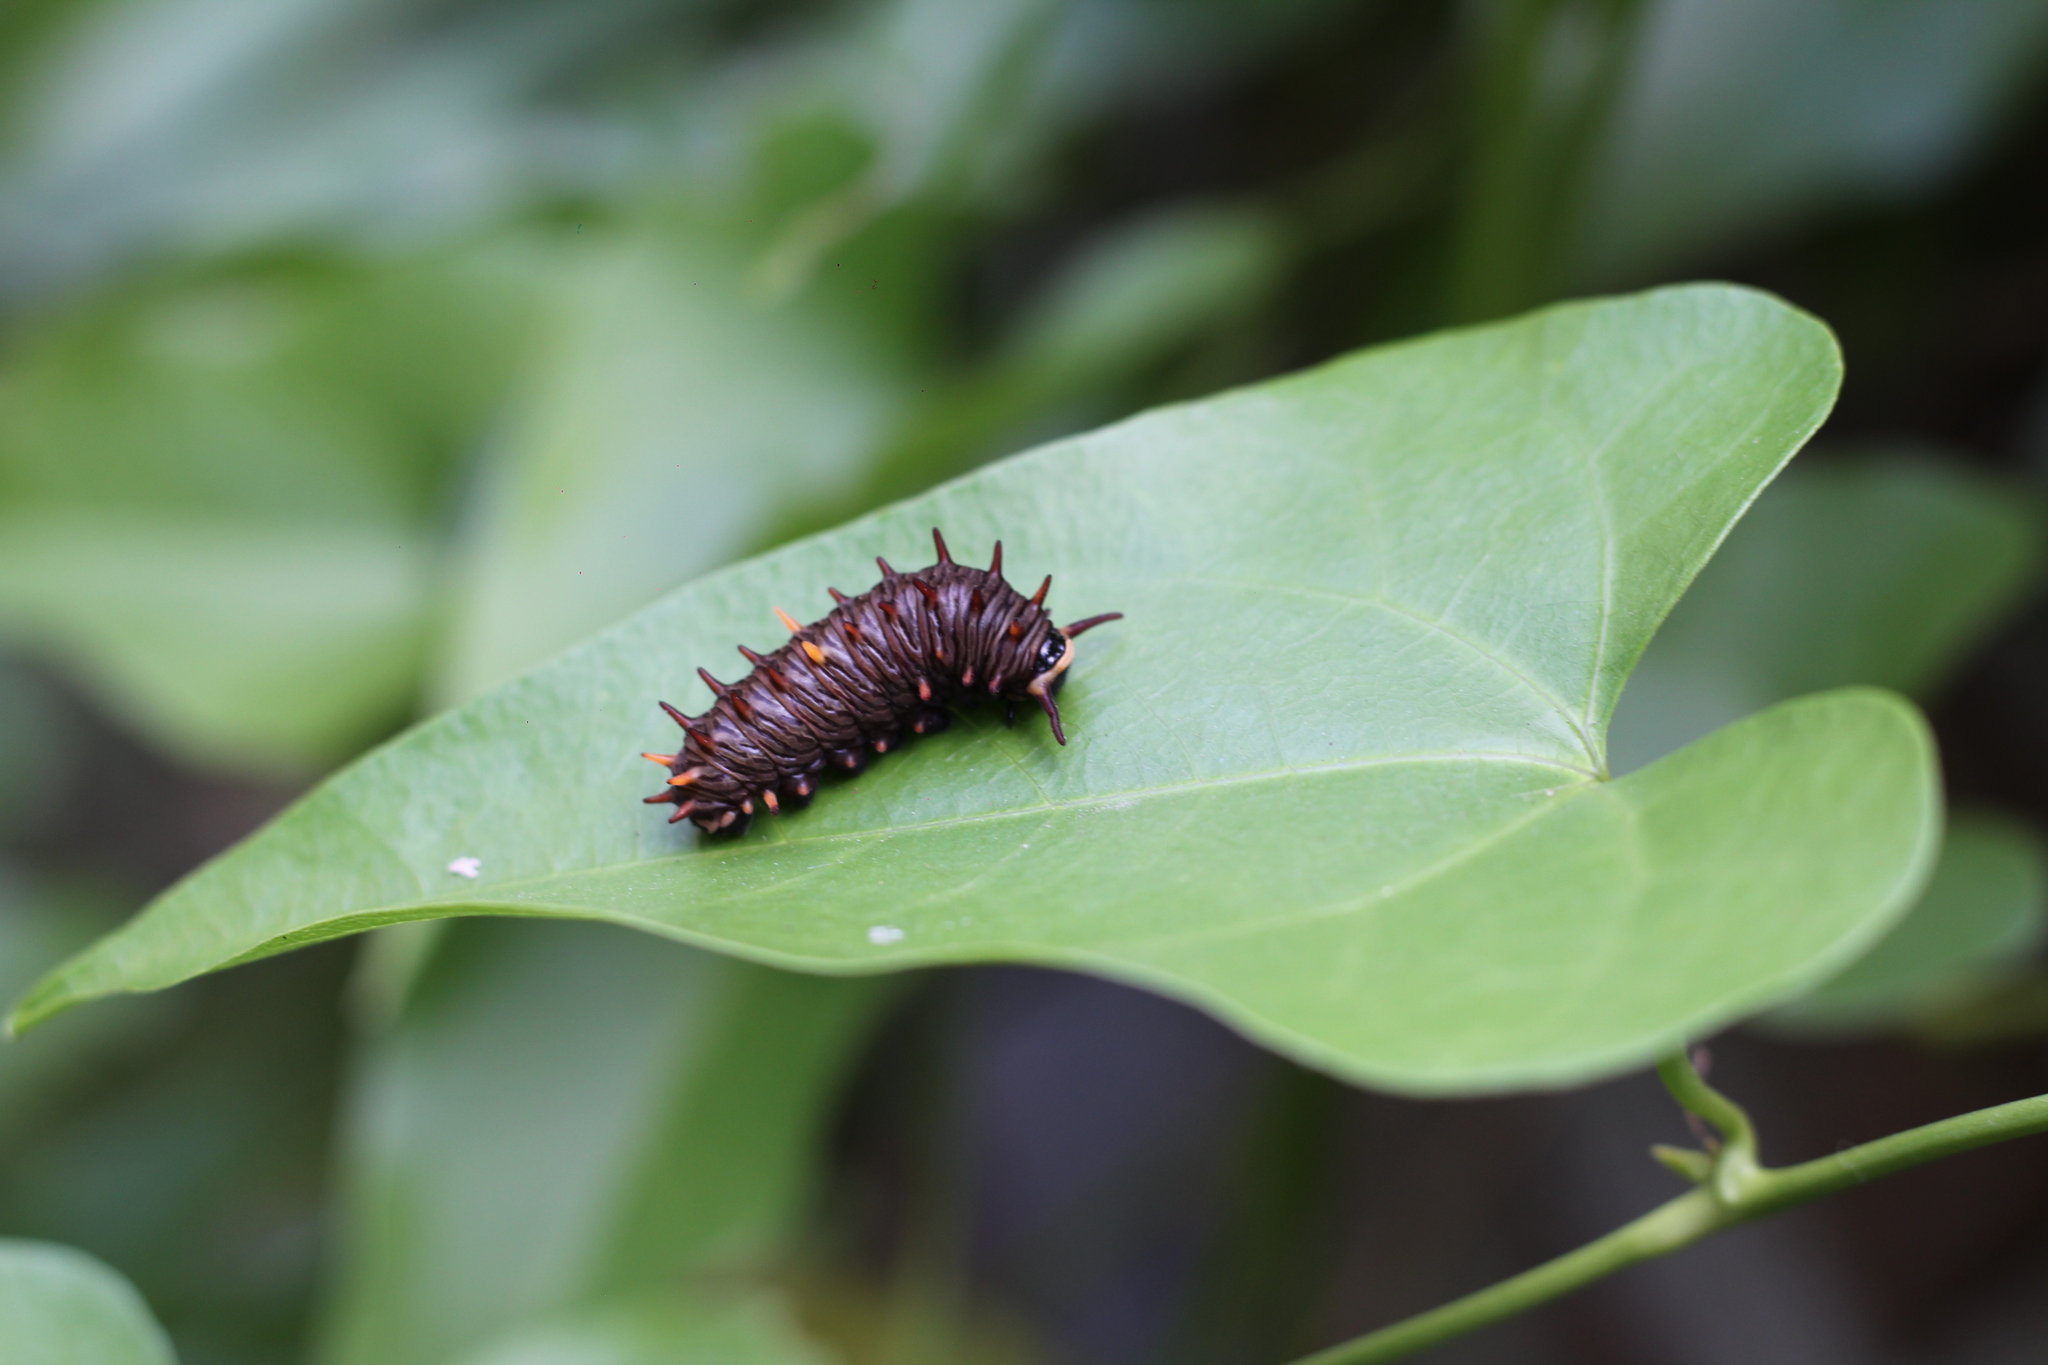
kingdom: Animalia
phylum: Arthropoda
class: Insecta
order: Lepidoptera
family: Papilionidae
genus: Battus
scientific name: Battus polydamas
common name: Polydamas swallowtail
